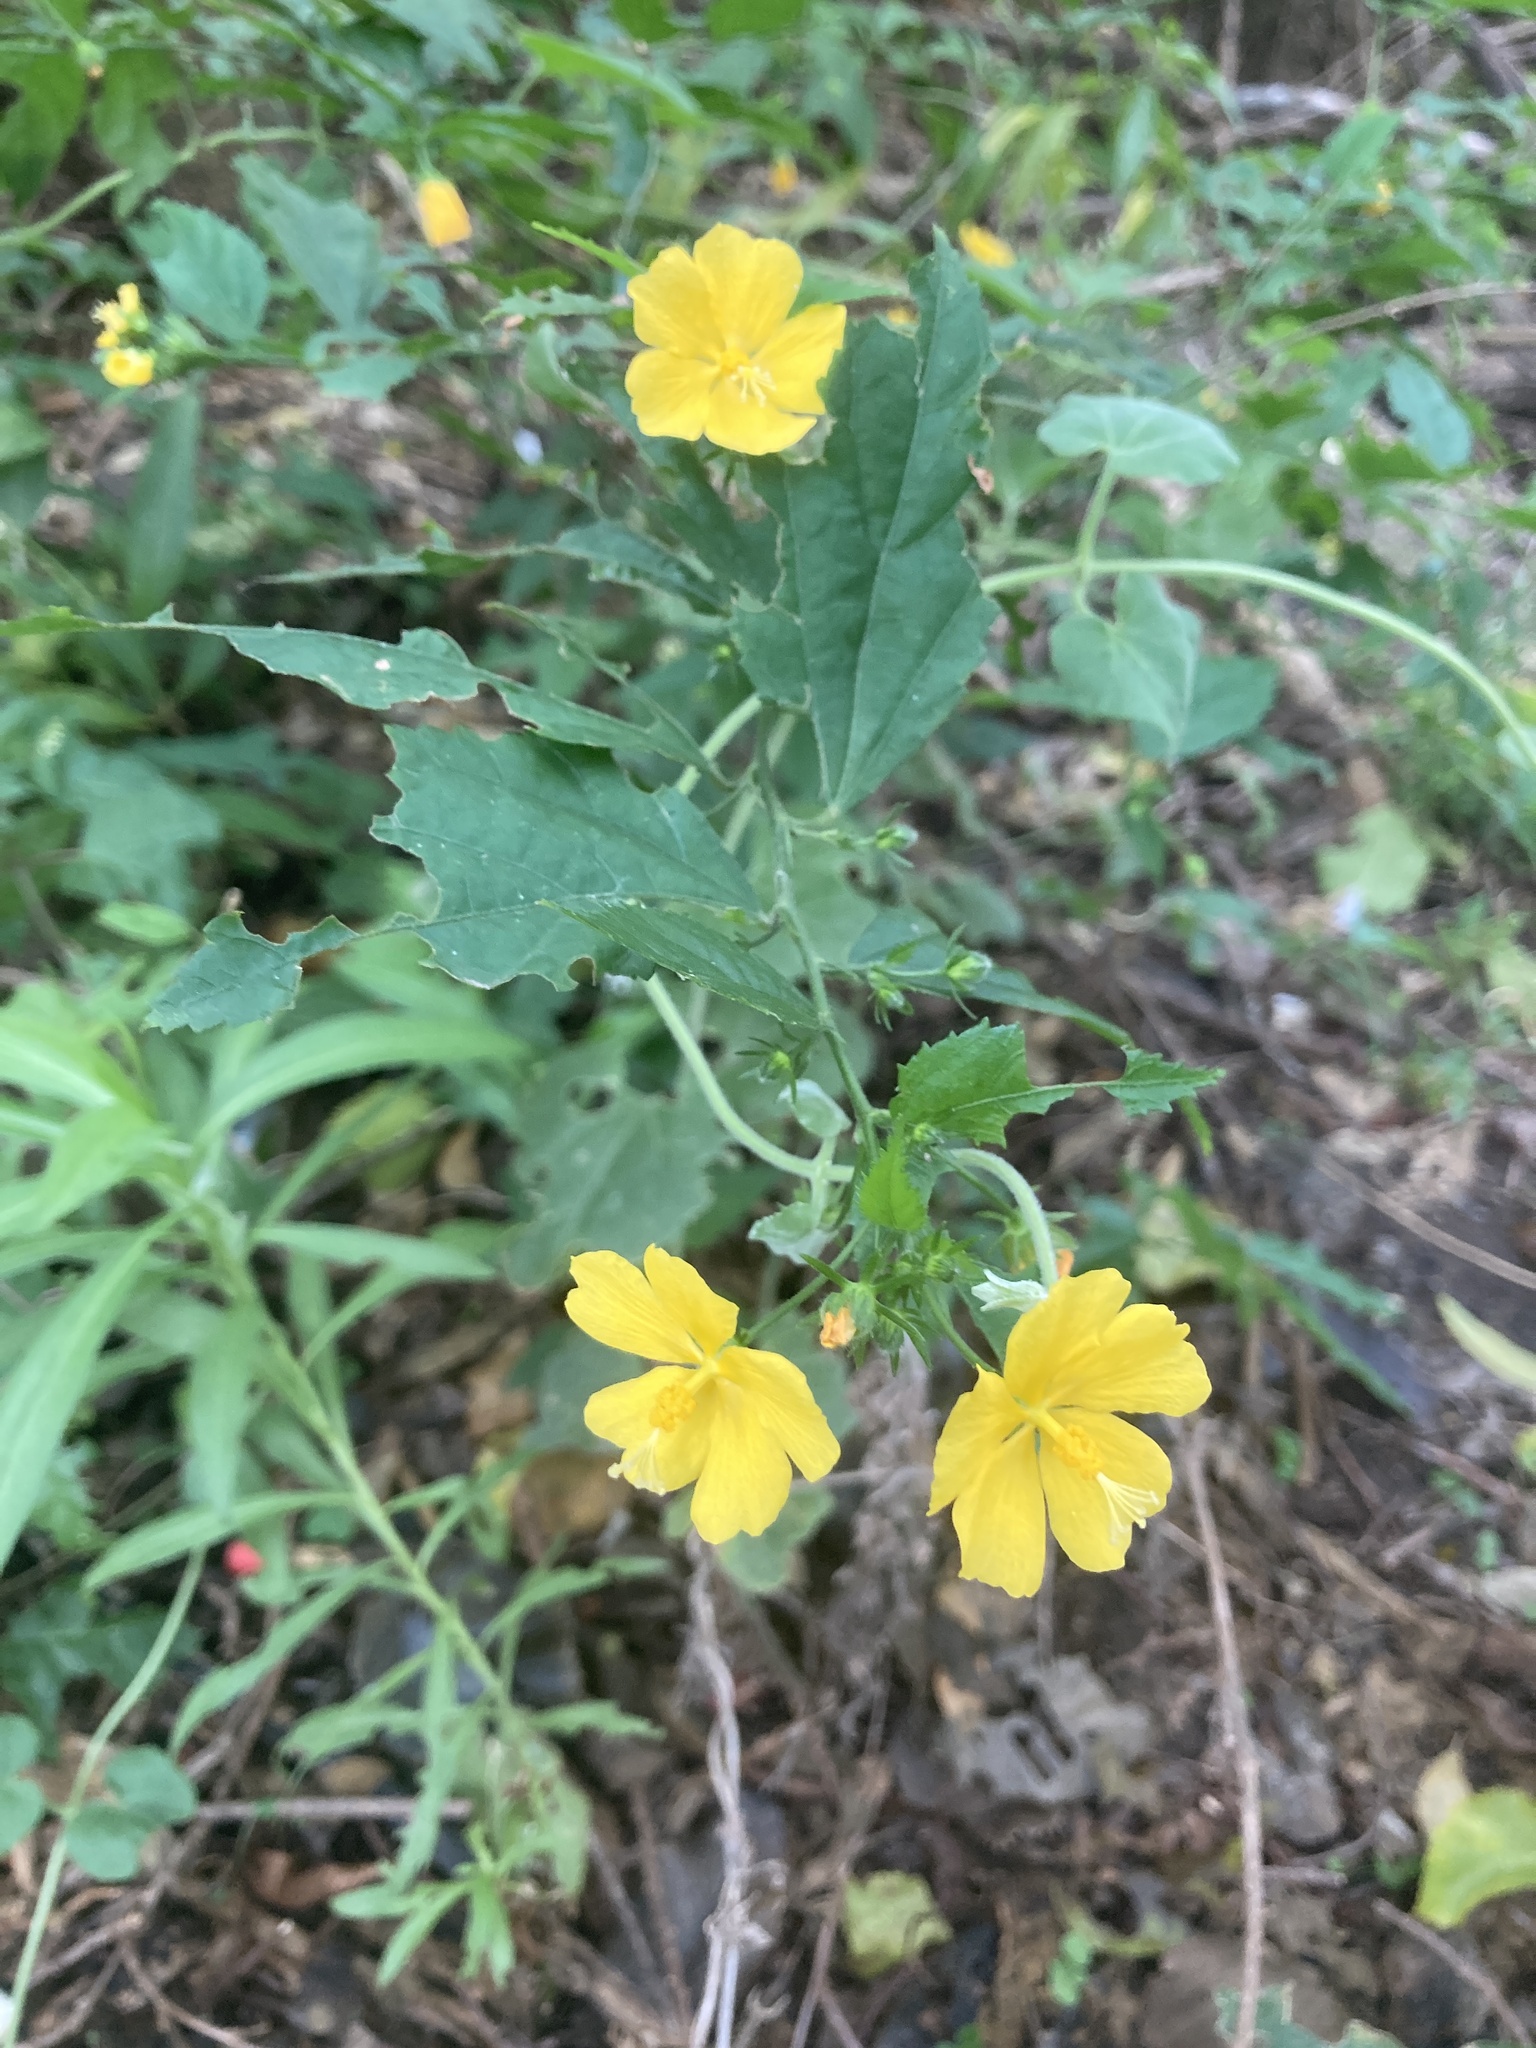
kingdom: Plantae
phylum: Tracheophyta
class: Magnoliopsida
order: Malvales
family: Malvaceae
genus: Pavonia
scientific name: Pavonia sepium
